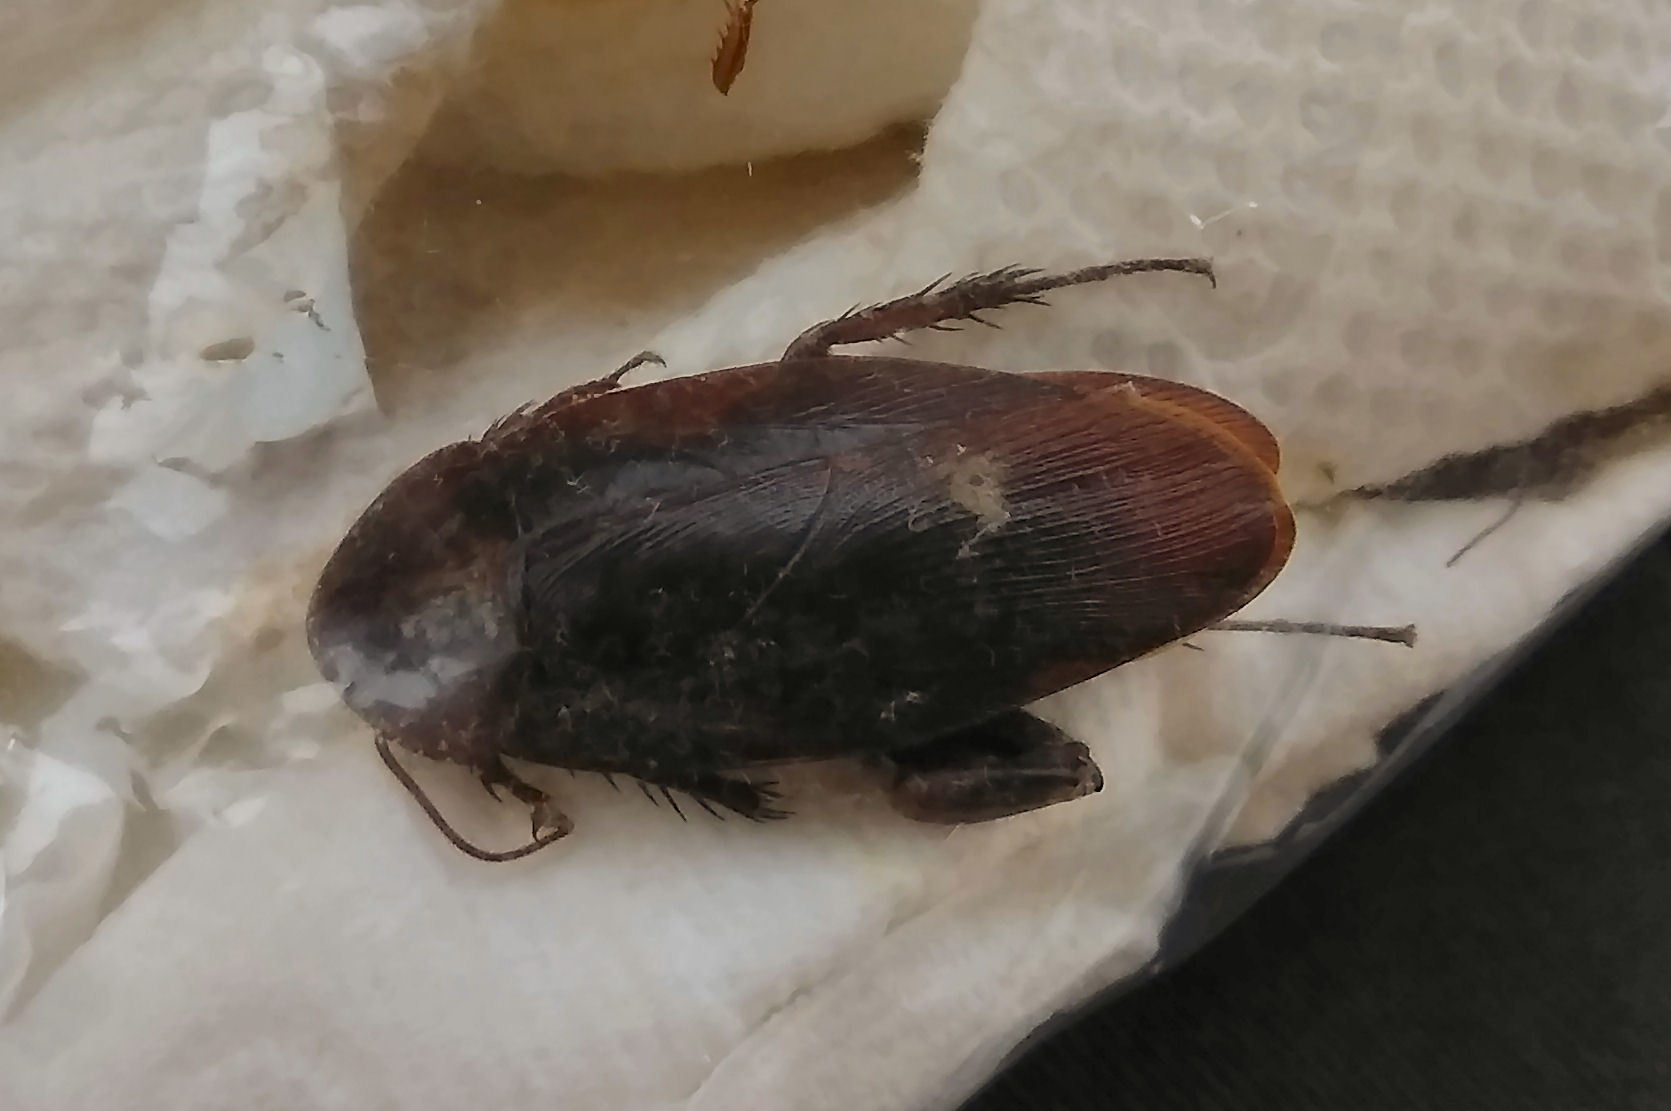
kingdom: Animalia
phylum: Arthropoda
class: Insecta
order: Blattodea
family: Blattidae
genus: Periplaneta
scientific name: Periplaneta fuliginosa
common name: Smokeybrown cockroad
